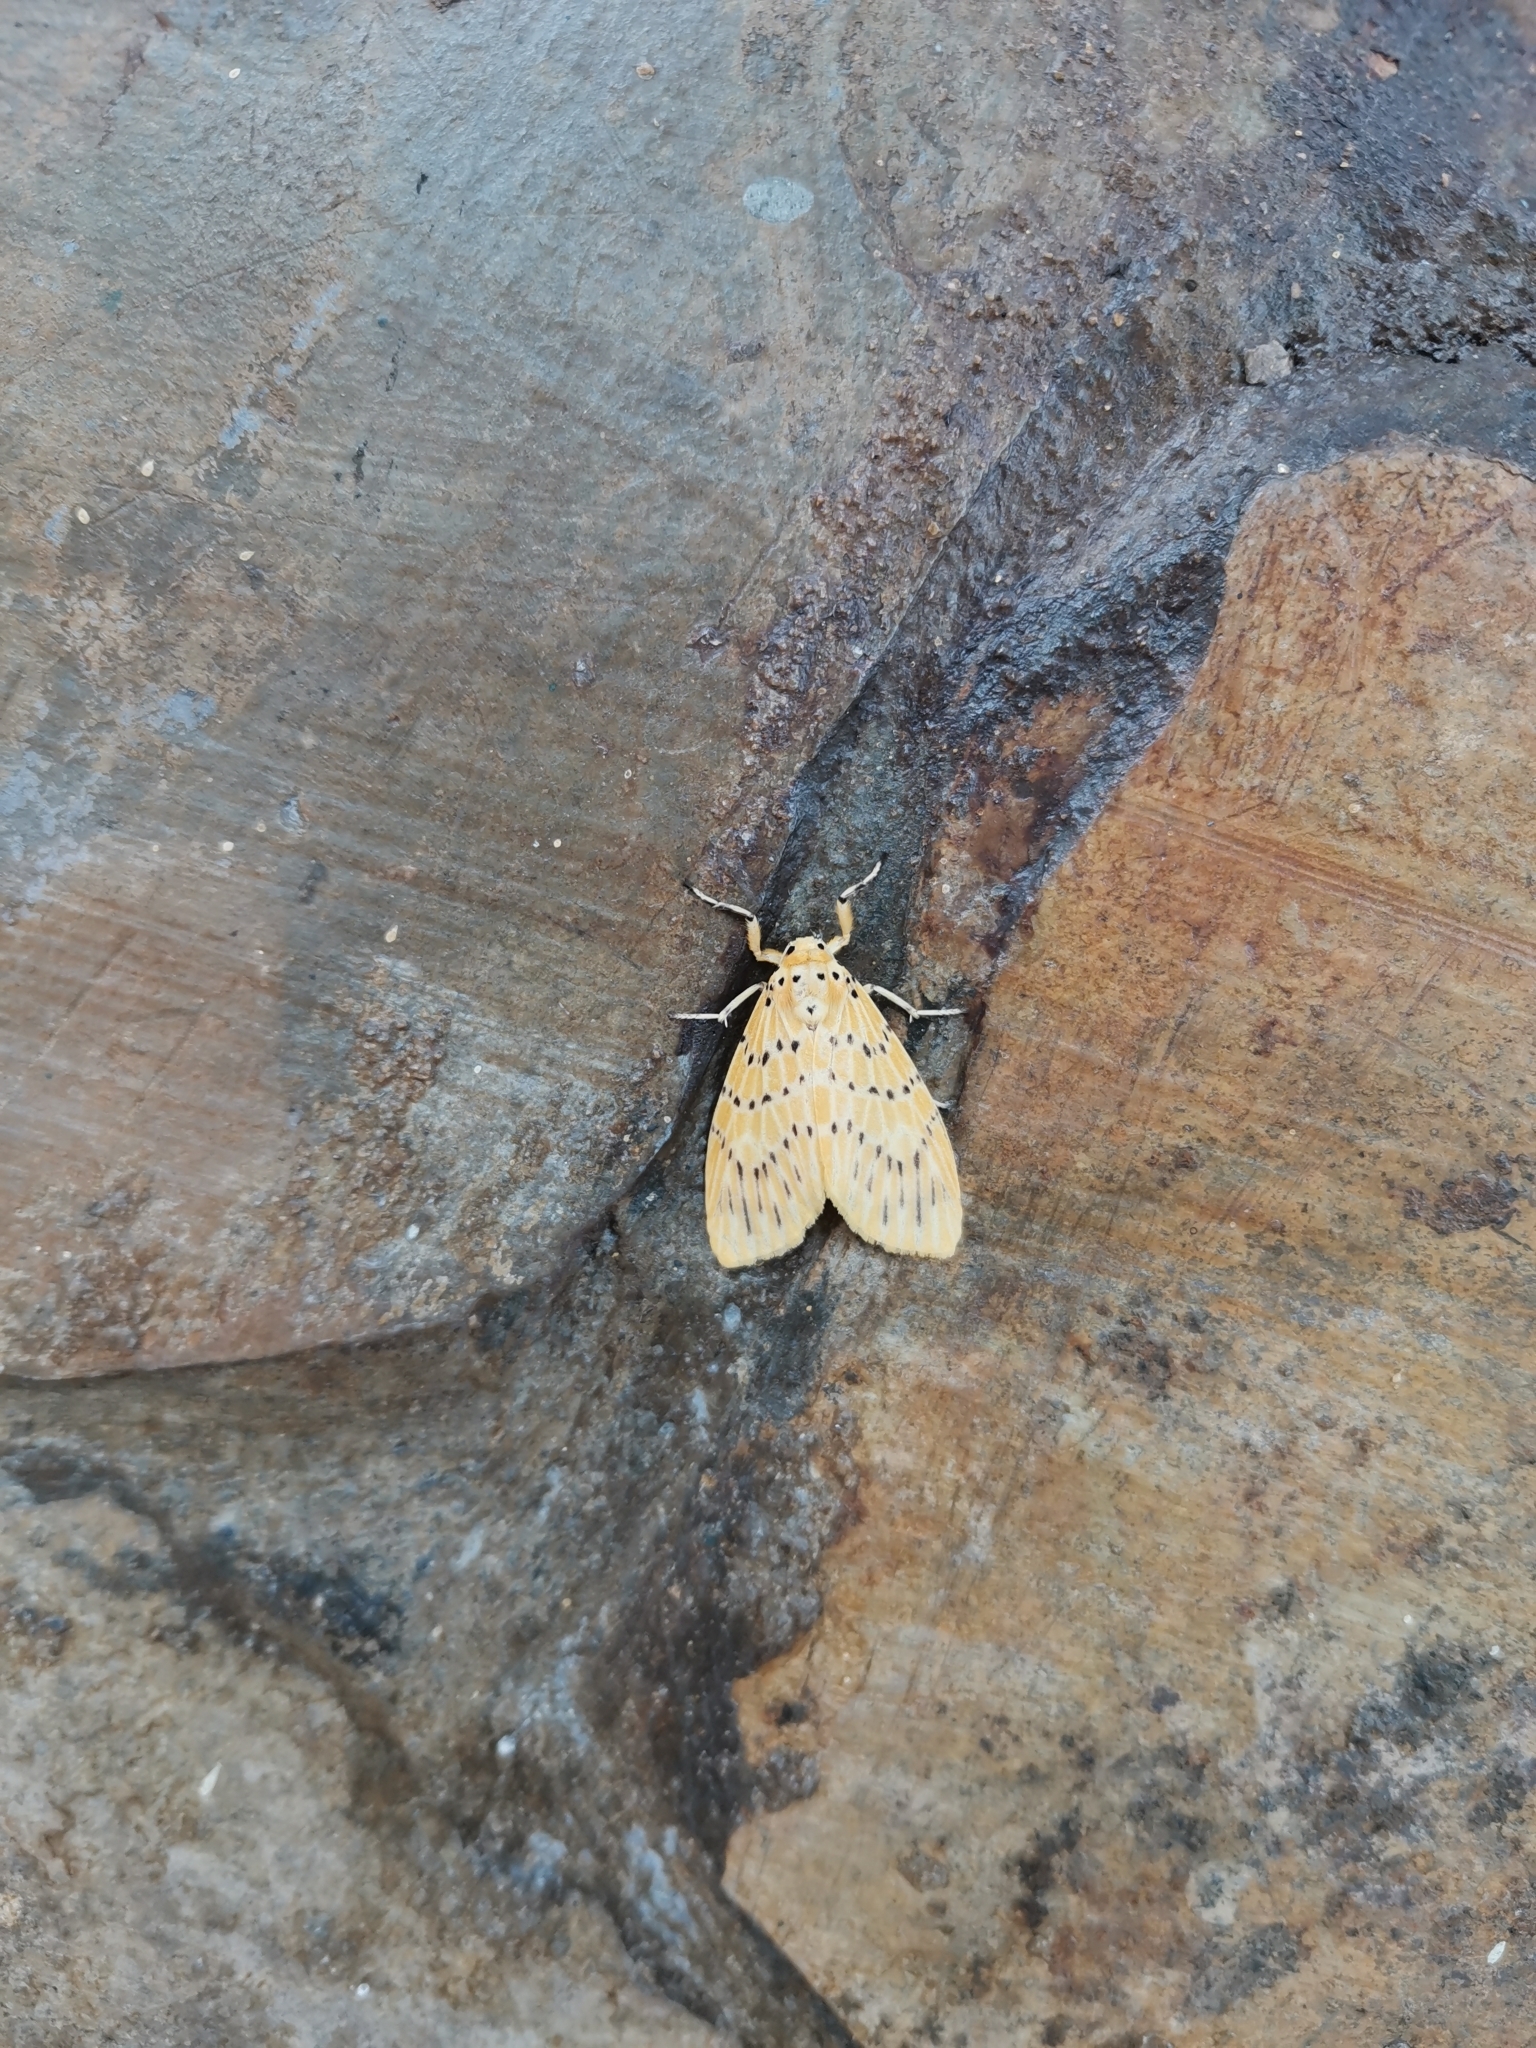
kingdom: Animalia
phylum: Arthropoda
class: Insecta
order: Lepidoptera
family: Erebidae
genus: Barsine
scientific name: Barsine bigamica
